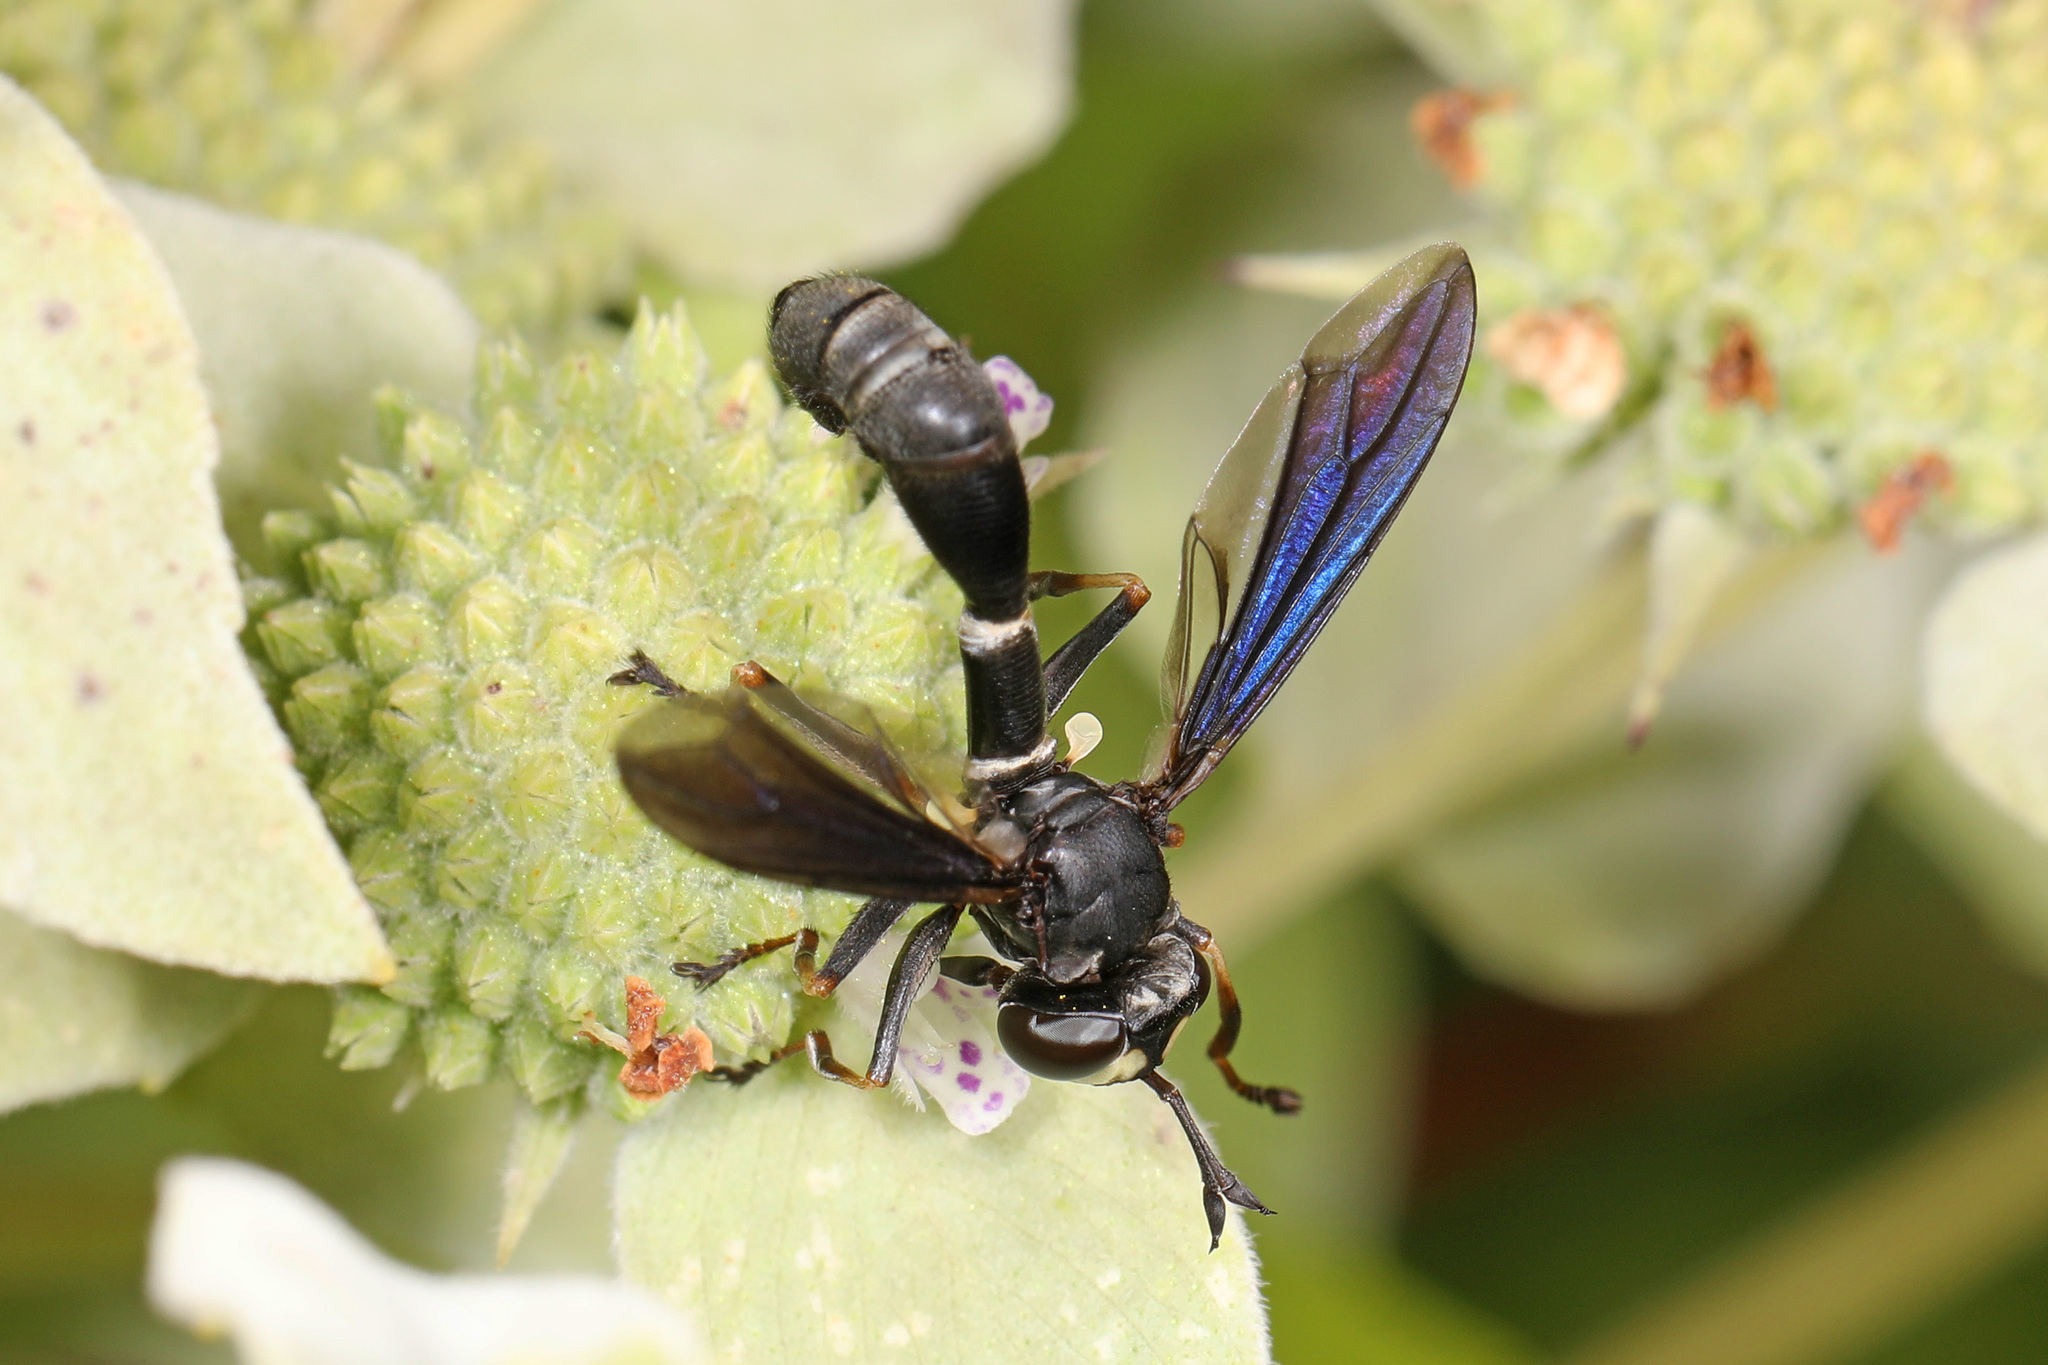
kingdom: Animalia
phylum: Arthropoda
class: Insecta
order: Diptera
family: Conopidae
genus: Physocephala
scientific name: Physocephala tibialis
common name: Common eastern physocephala
